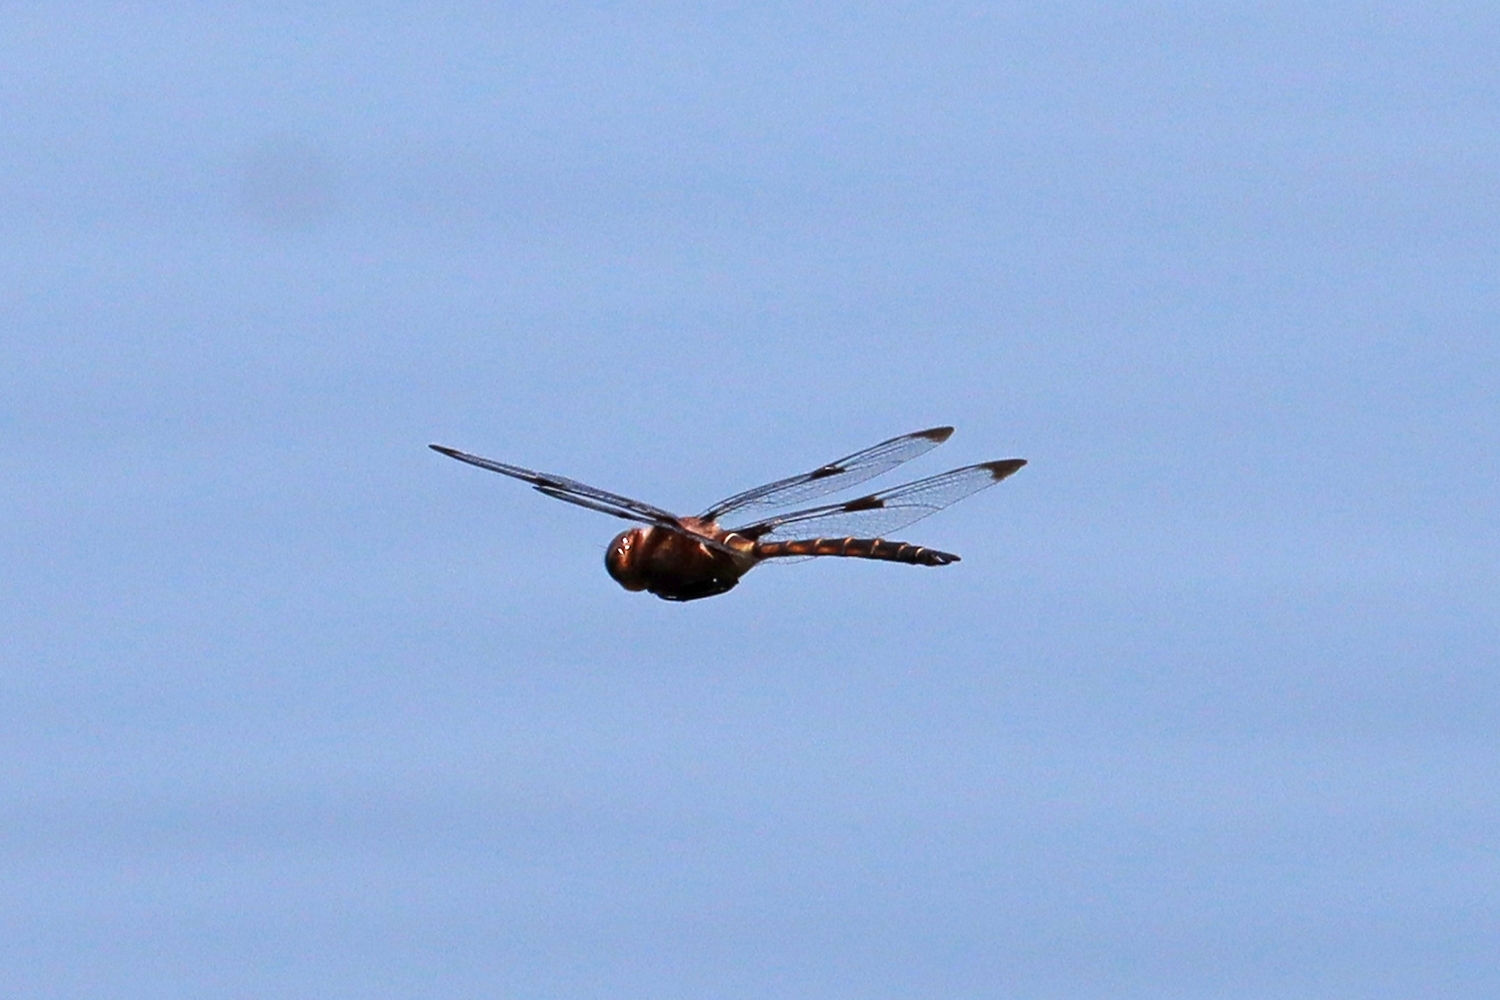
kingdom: Animalia
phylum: Arthropoda
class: Insecta
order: Odonata
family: Corduliidae
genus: Epitheca
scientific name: Epitheca princeps
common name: Prince baskettail
